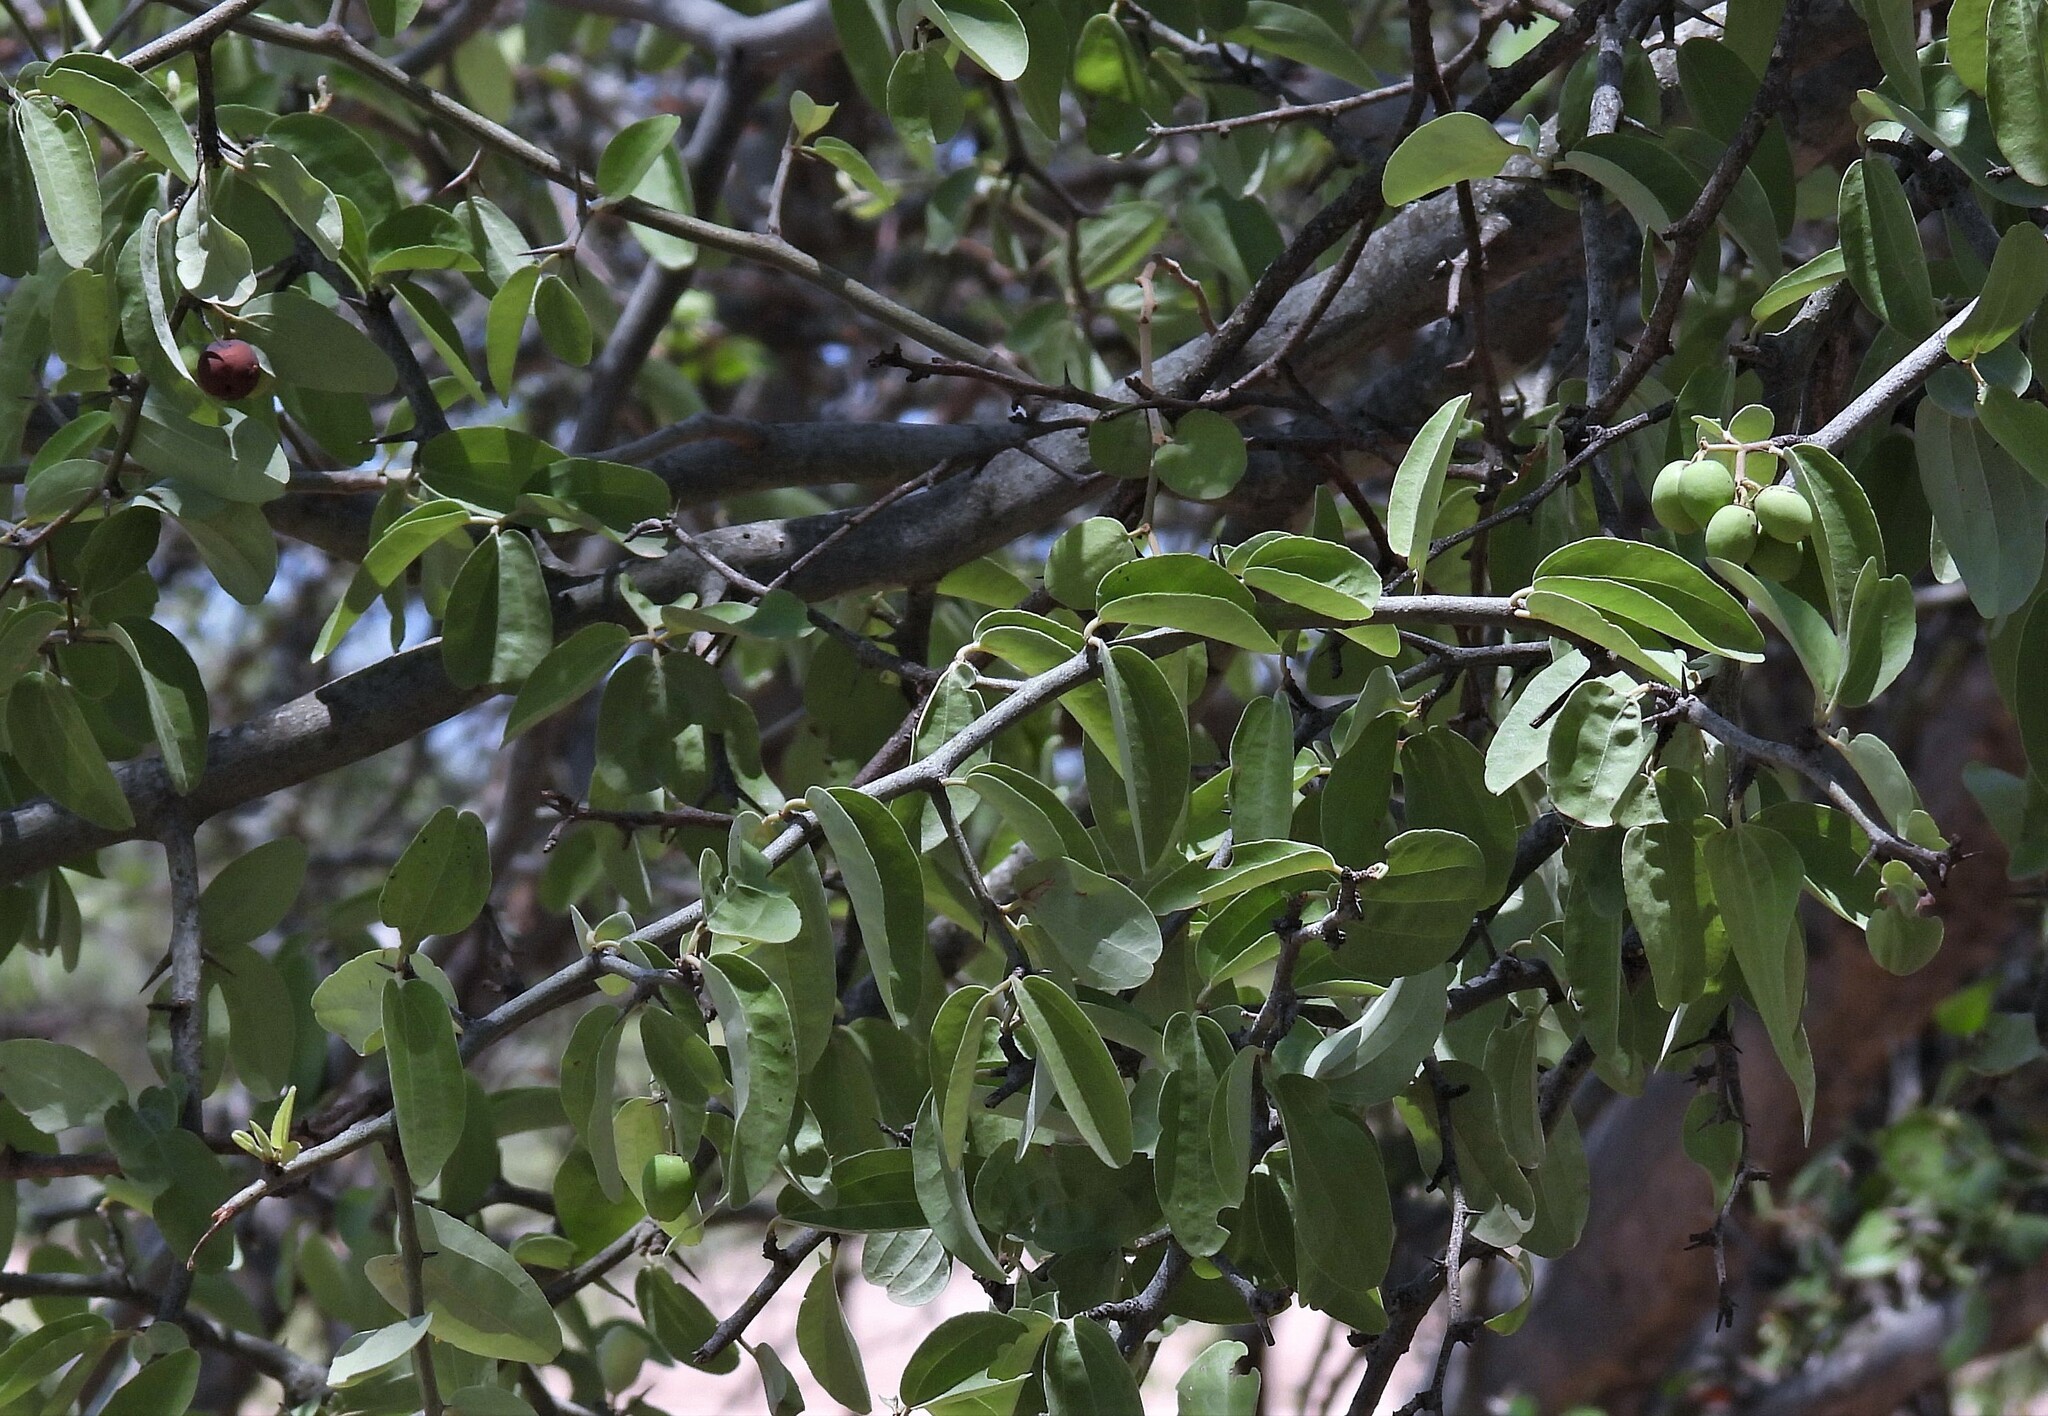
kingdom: Plantae
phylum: Tracheophyta
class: Magnoliopsida
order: Rosales
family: Rhamnaceae
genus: Sarcomphalus
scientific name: Sarcomphalus mistol
